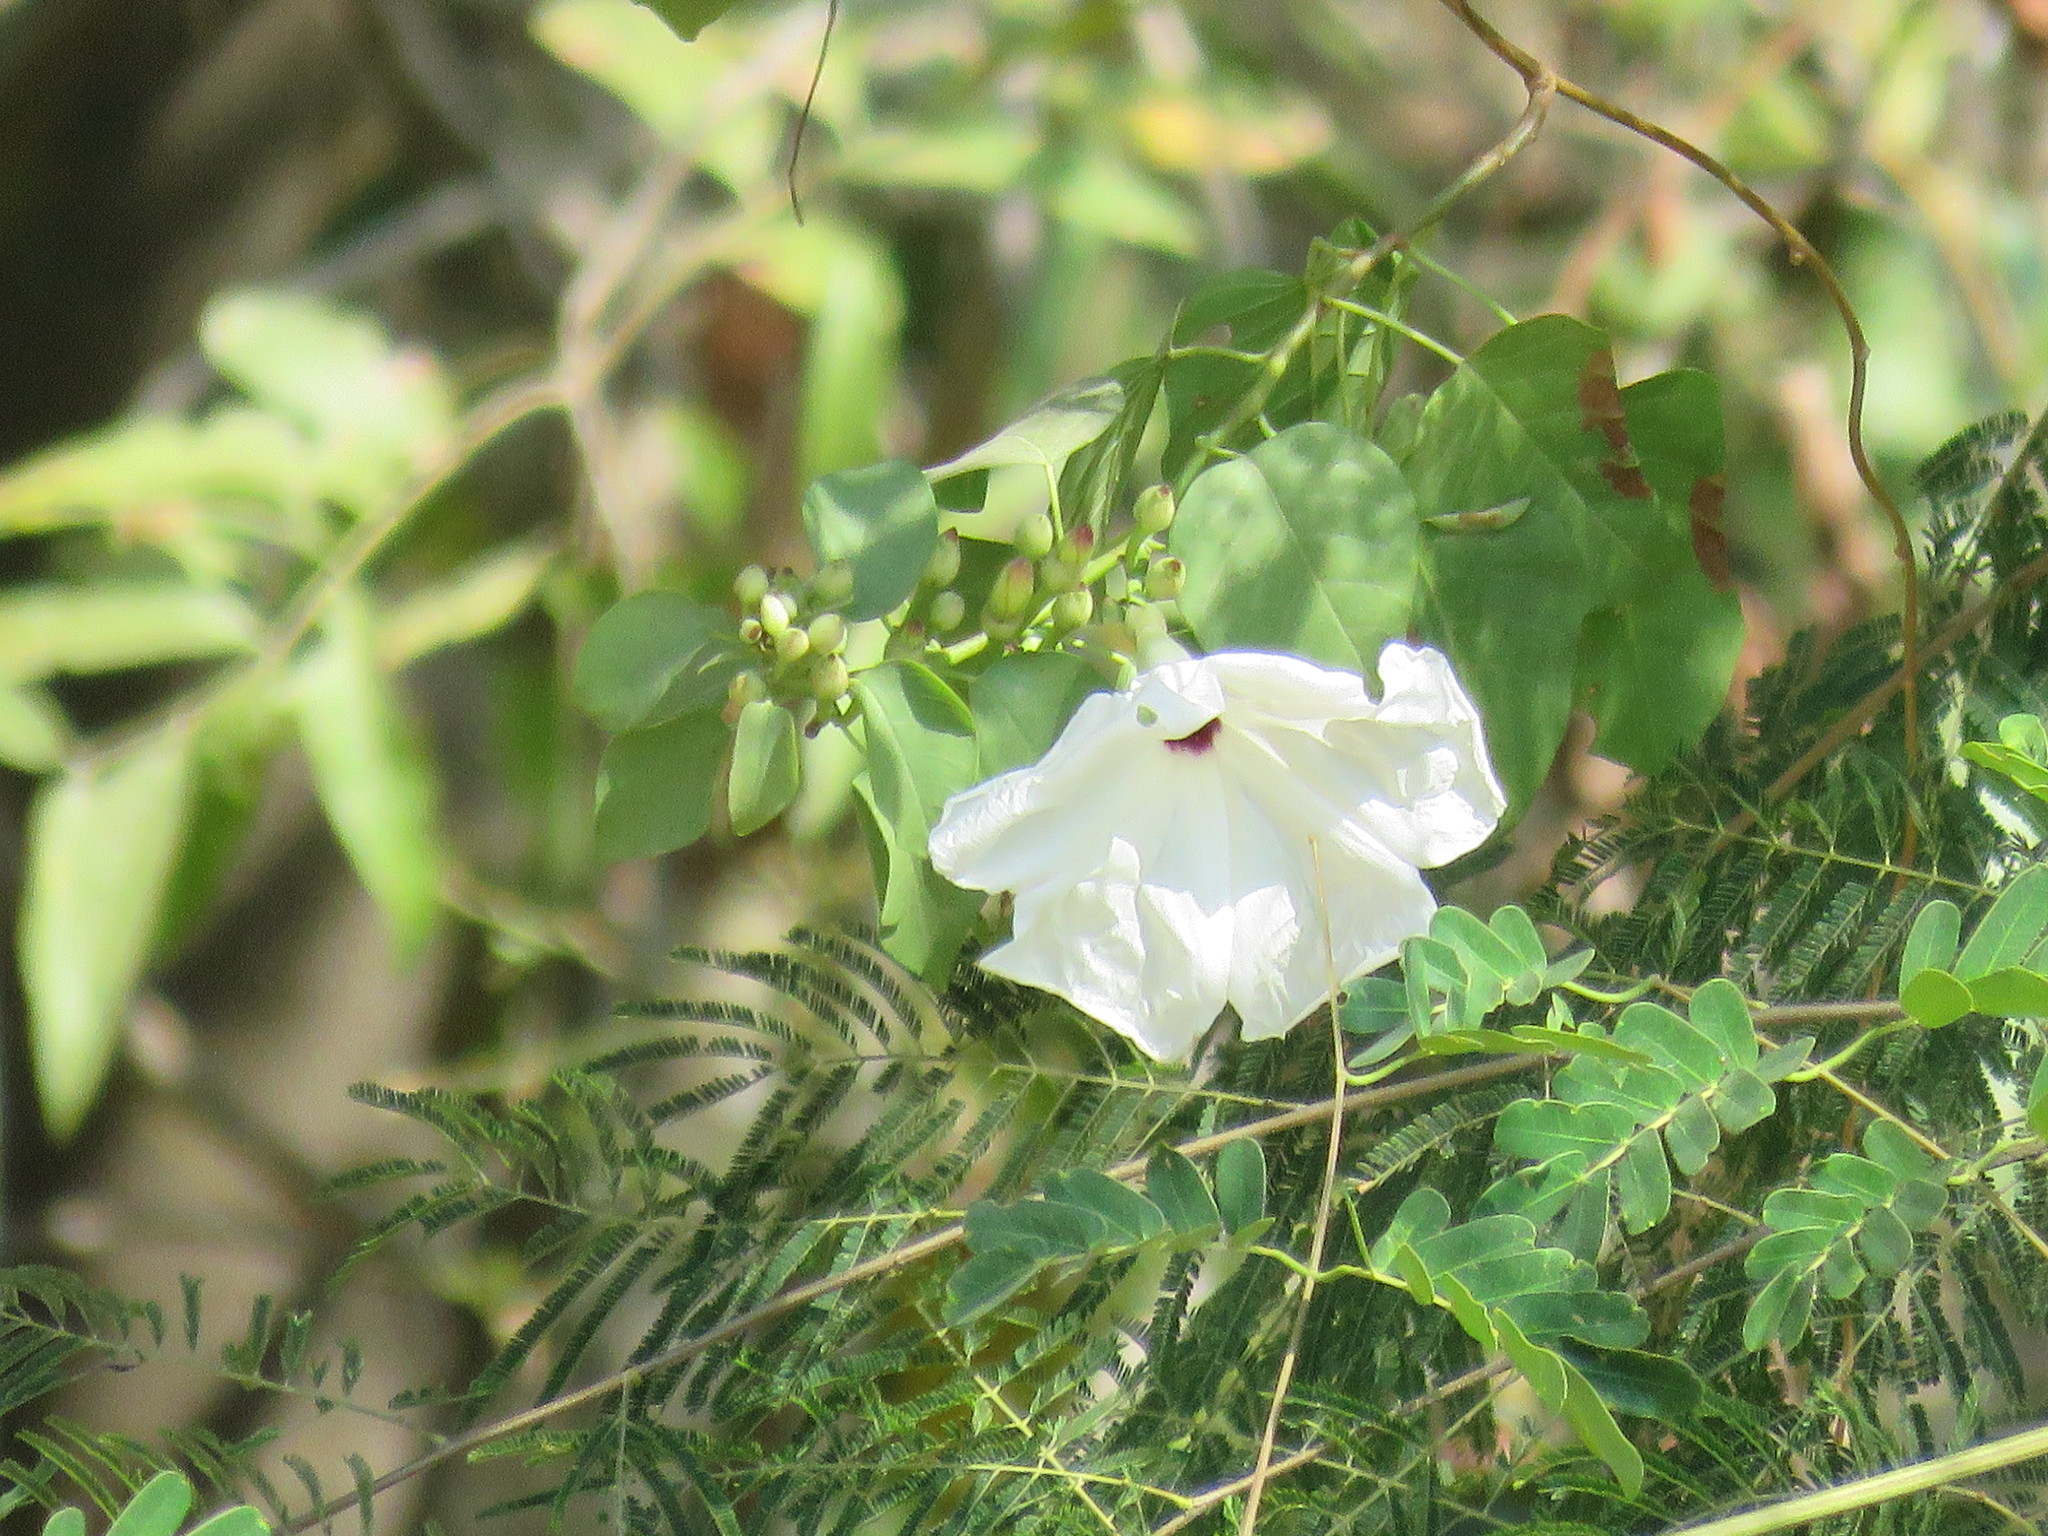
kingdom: Plantae
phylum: Tracheophyta
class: Magnoliopsida
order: Solanales
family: Convolvulaceae
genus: Ipomoea
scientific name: Ipomoea populina
